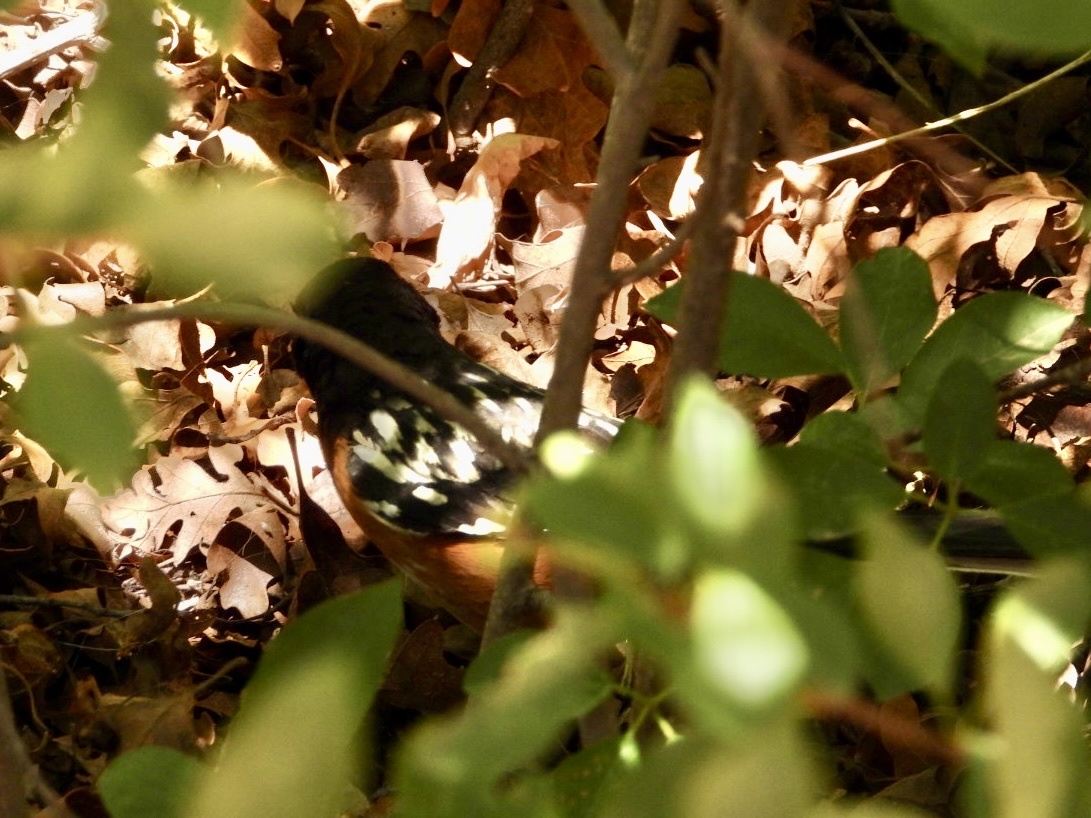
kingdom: Animalia
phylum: Chordata
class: Aves
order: Passeriformes
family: Passerellidae
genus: Pipilo
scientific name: Pipilo maculatus
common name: Spotted towhee
